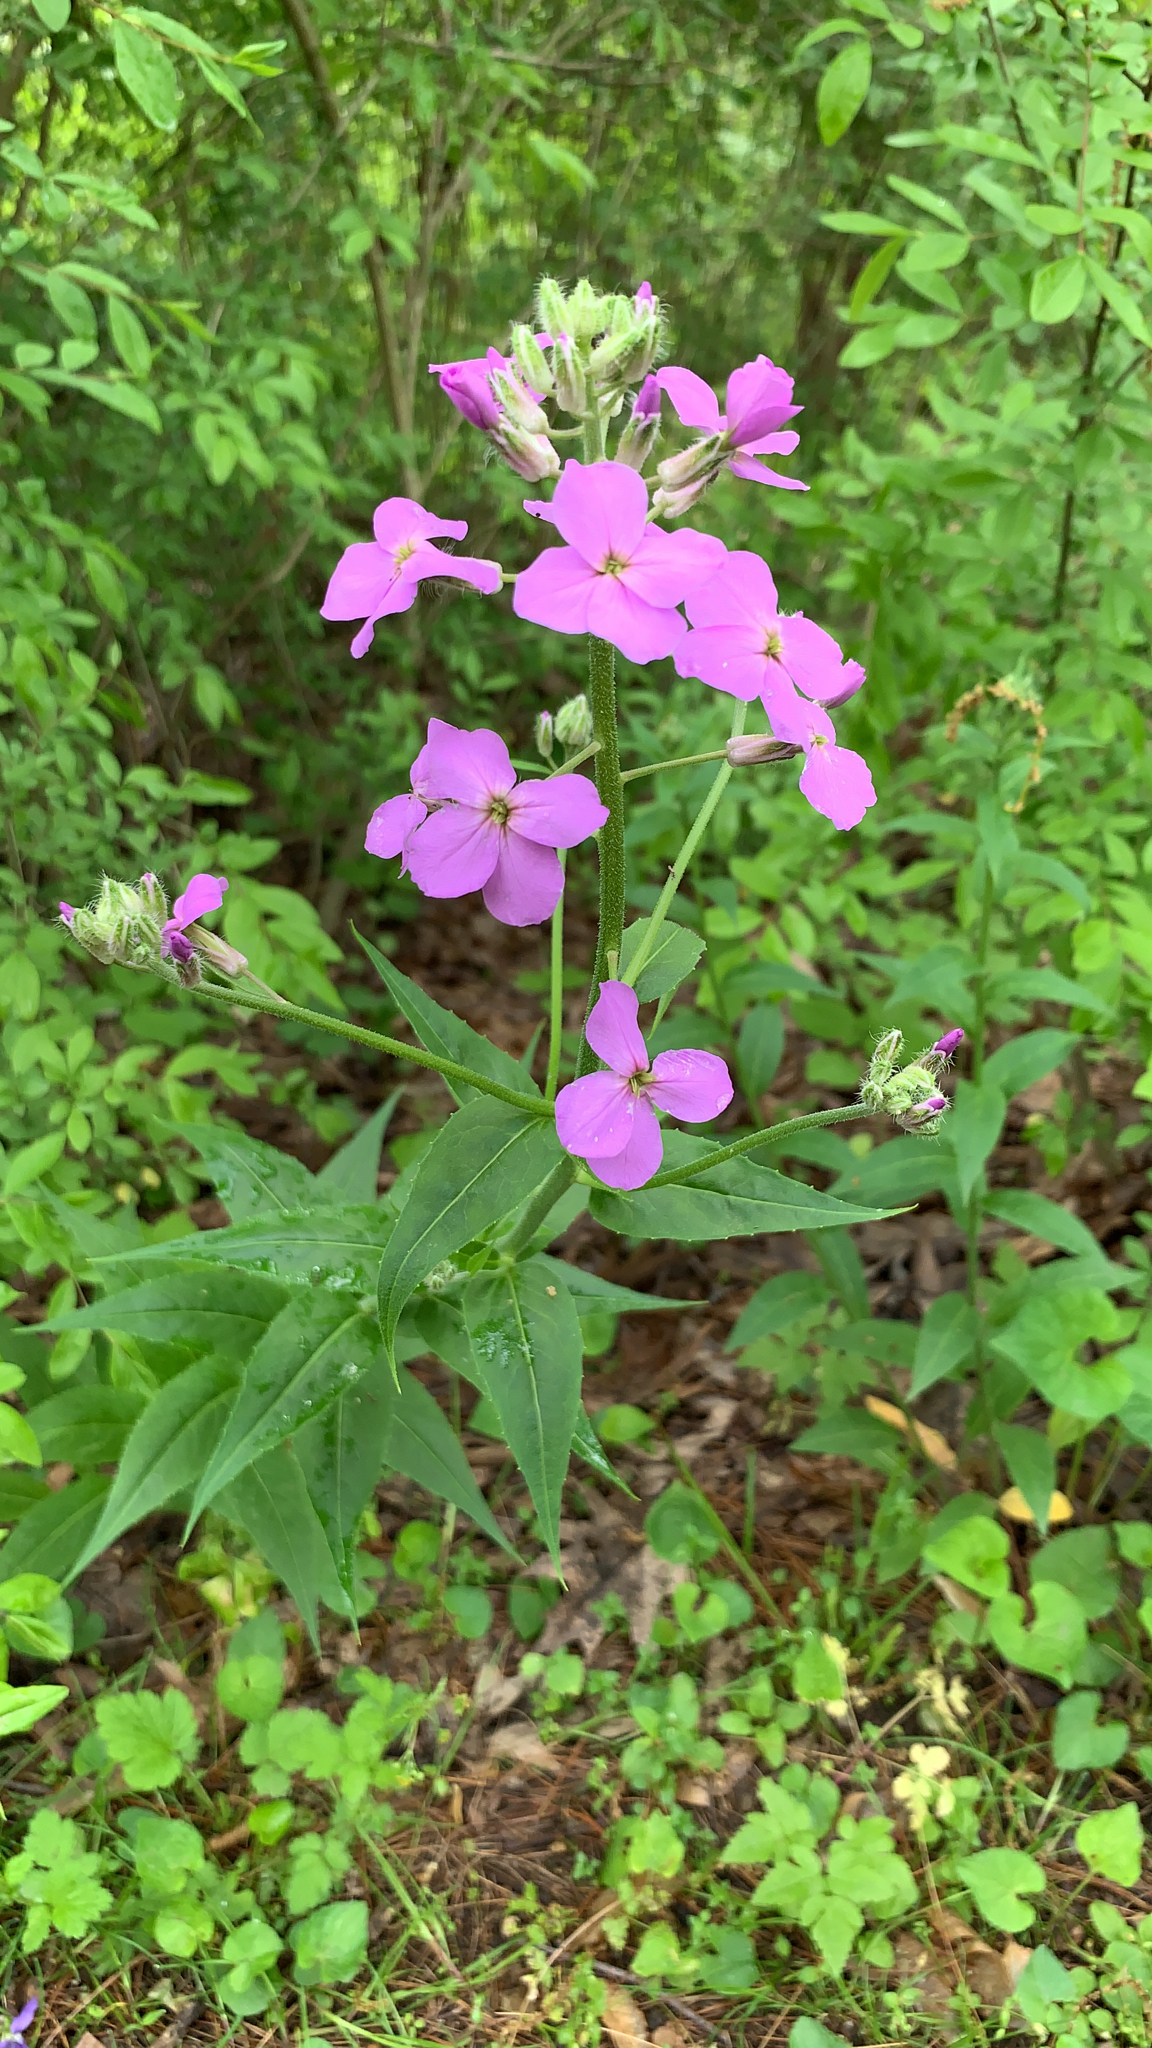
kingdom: Plantae
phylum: Tracheophyta
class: Magnoliopsida
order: Brassicales
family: Brassicaceae
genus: Hesperis
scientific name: Hesperis matronalis
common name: Dame's-violet
